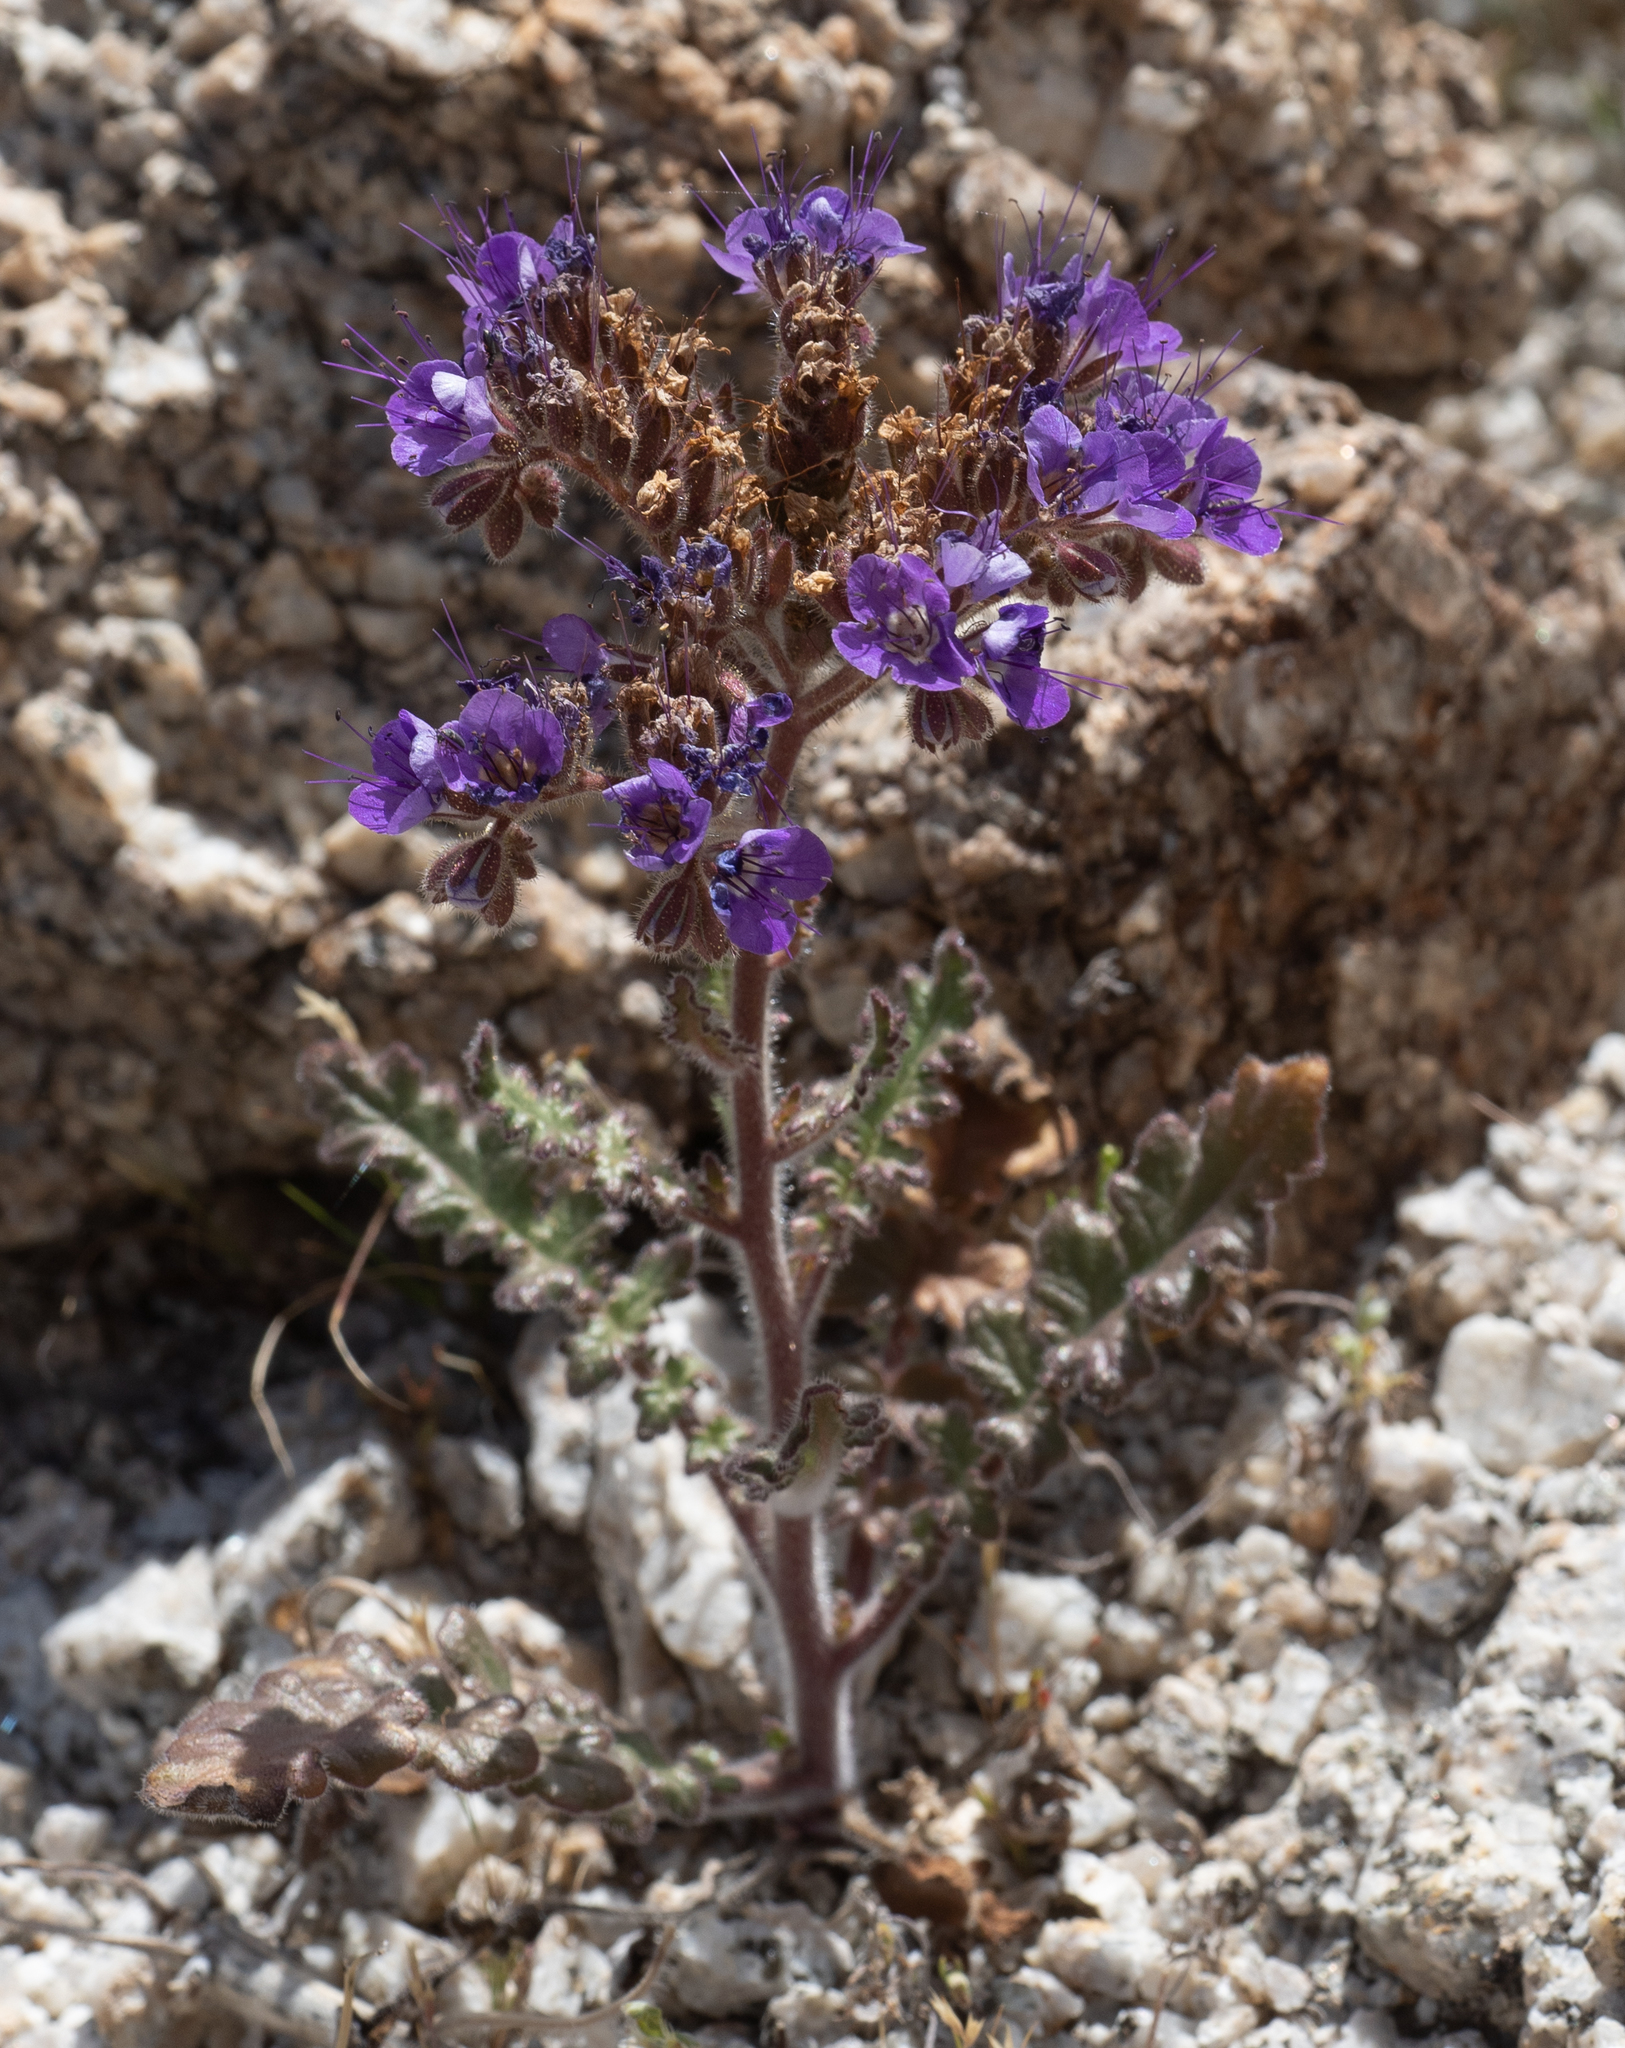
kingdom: Plantae
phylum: Tracheophyta
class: Magnoliopsida
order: Boraginales
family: Hydrophyllaceae
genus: Phacelia
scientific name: Phacelia crenulata
